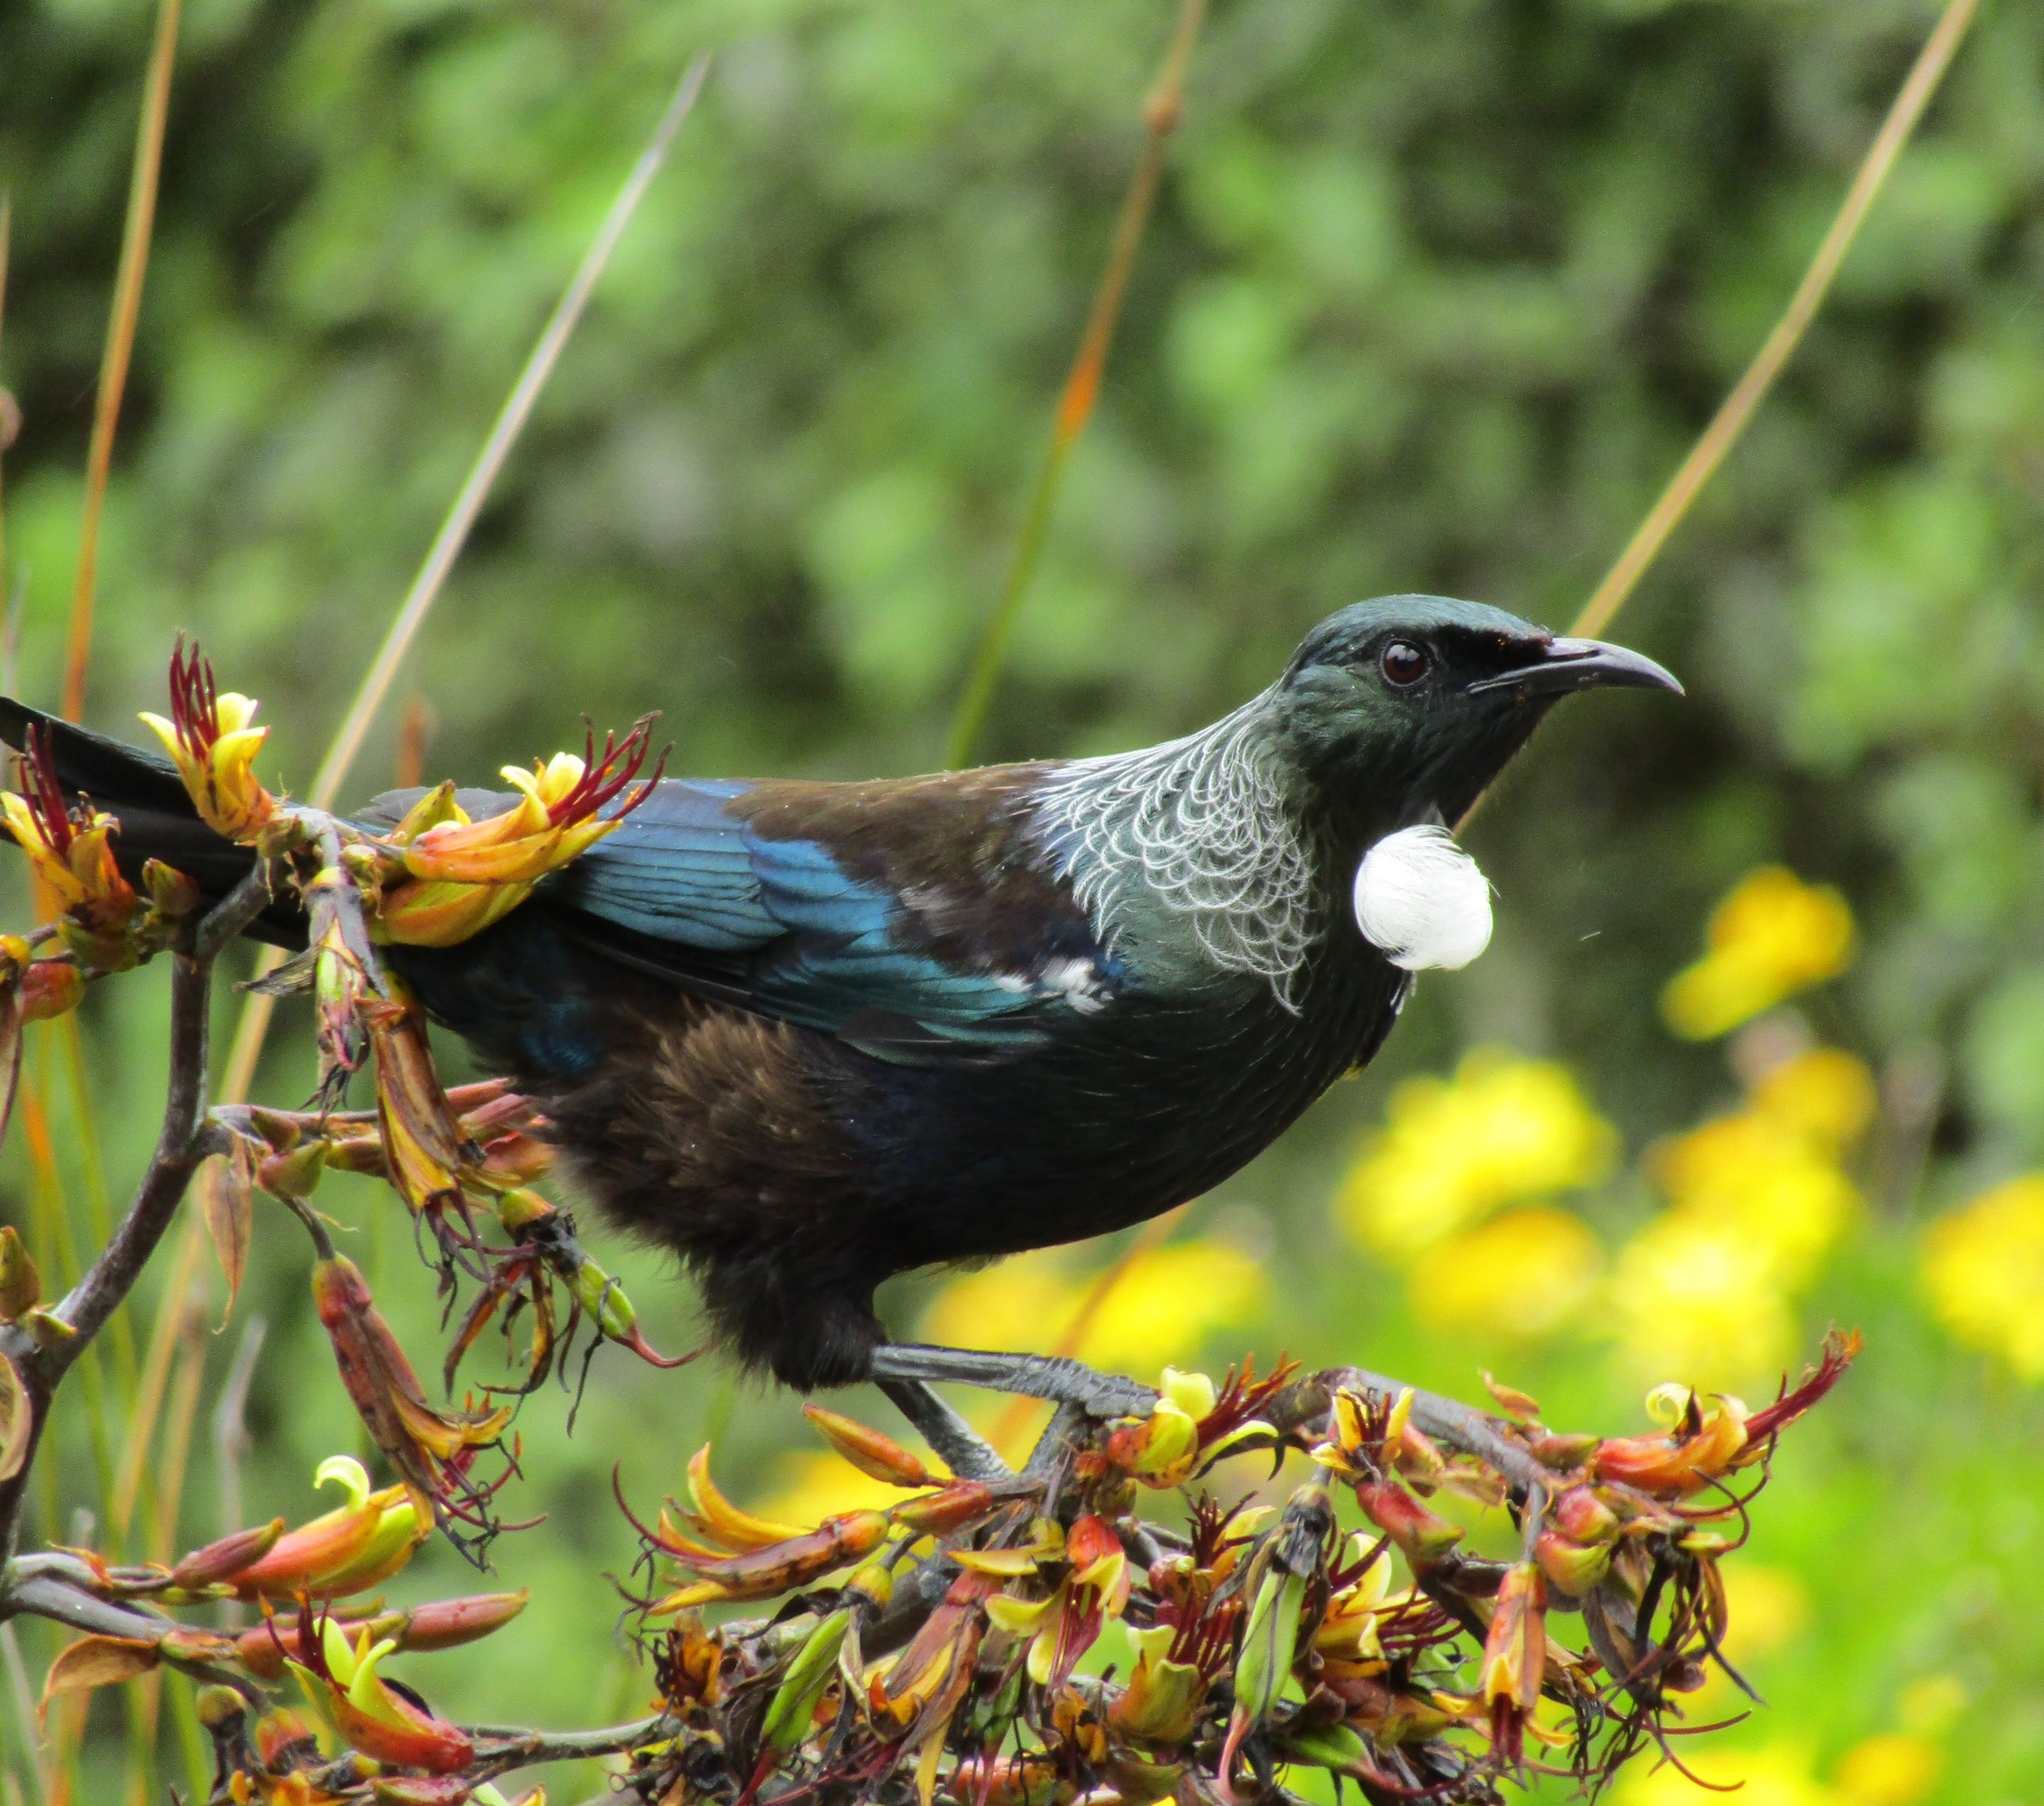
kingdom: Animalia
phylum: Chordata
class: Aves
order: Passeriformes
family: Meliphagidae
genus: Prosthemadera
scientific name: Prosthemadera novaeseelandiae
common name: Tui
